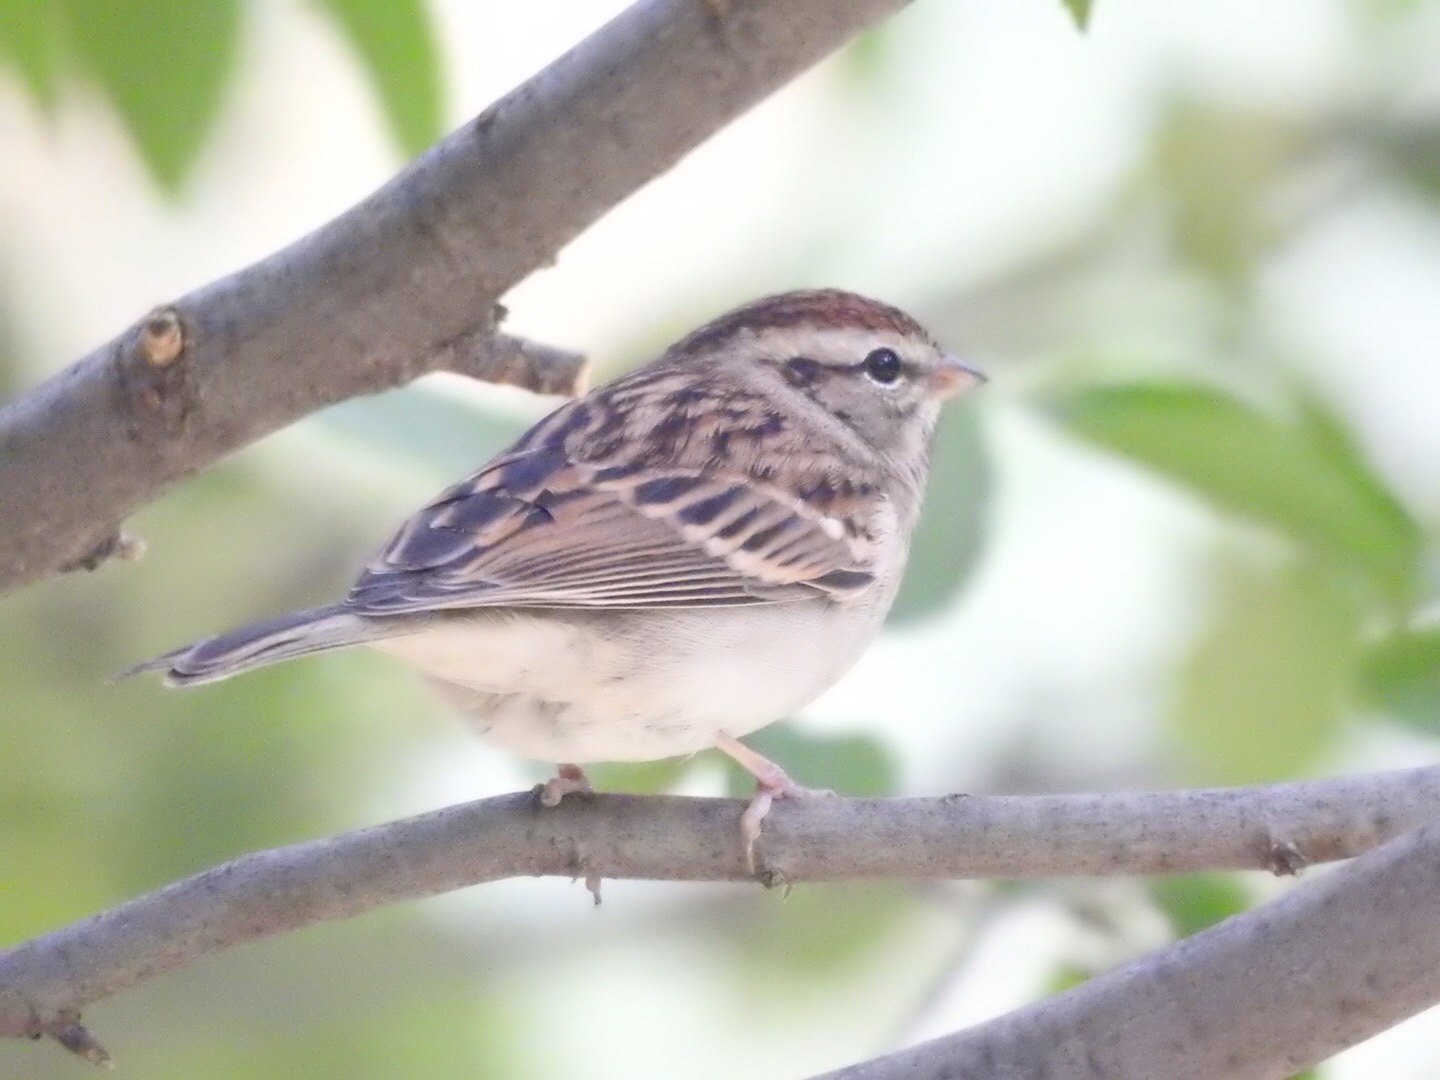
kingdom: Animalia
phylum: Chordata
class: Aves
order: Passeriformes
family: Passerellidae
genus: Spizella
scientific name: Spizella passerina
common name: Chipping sparrow
